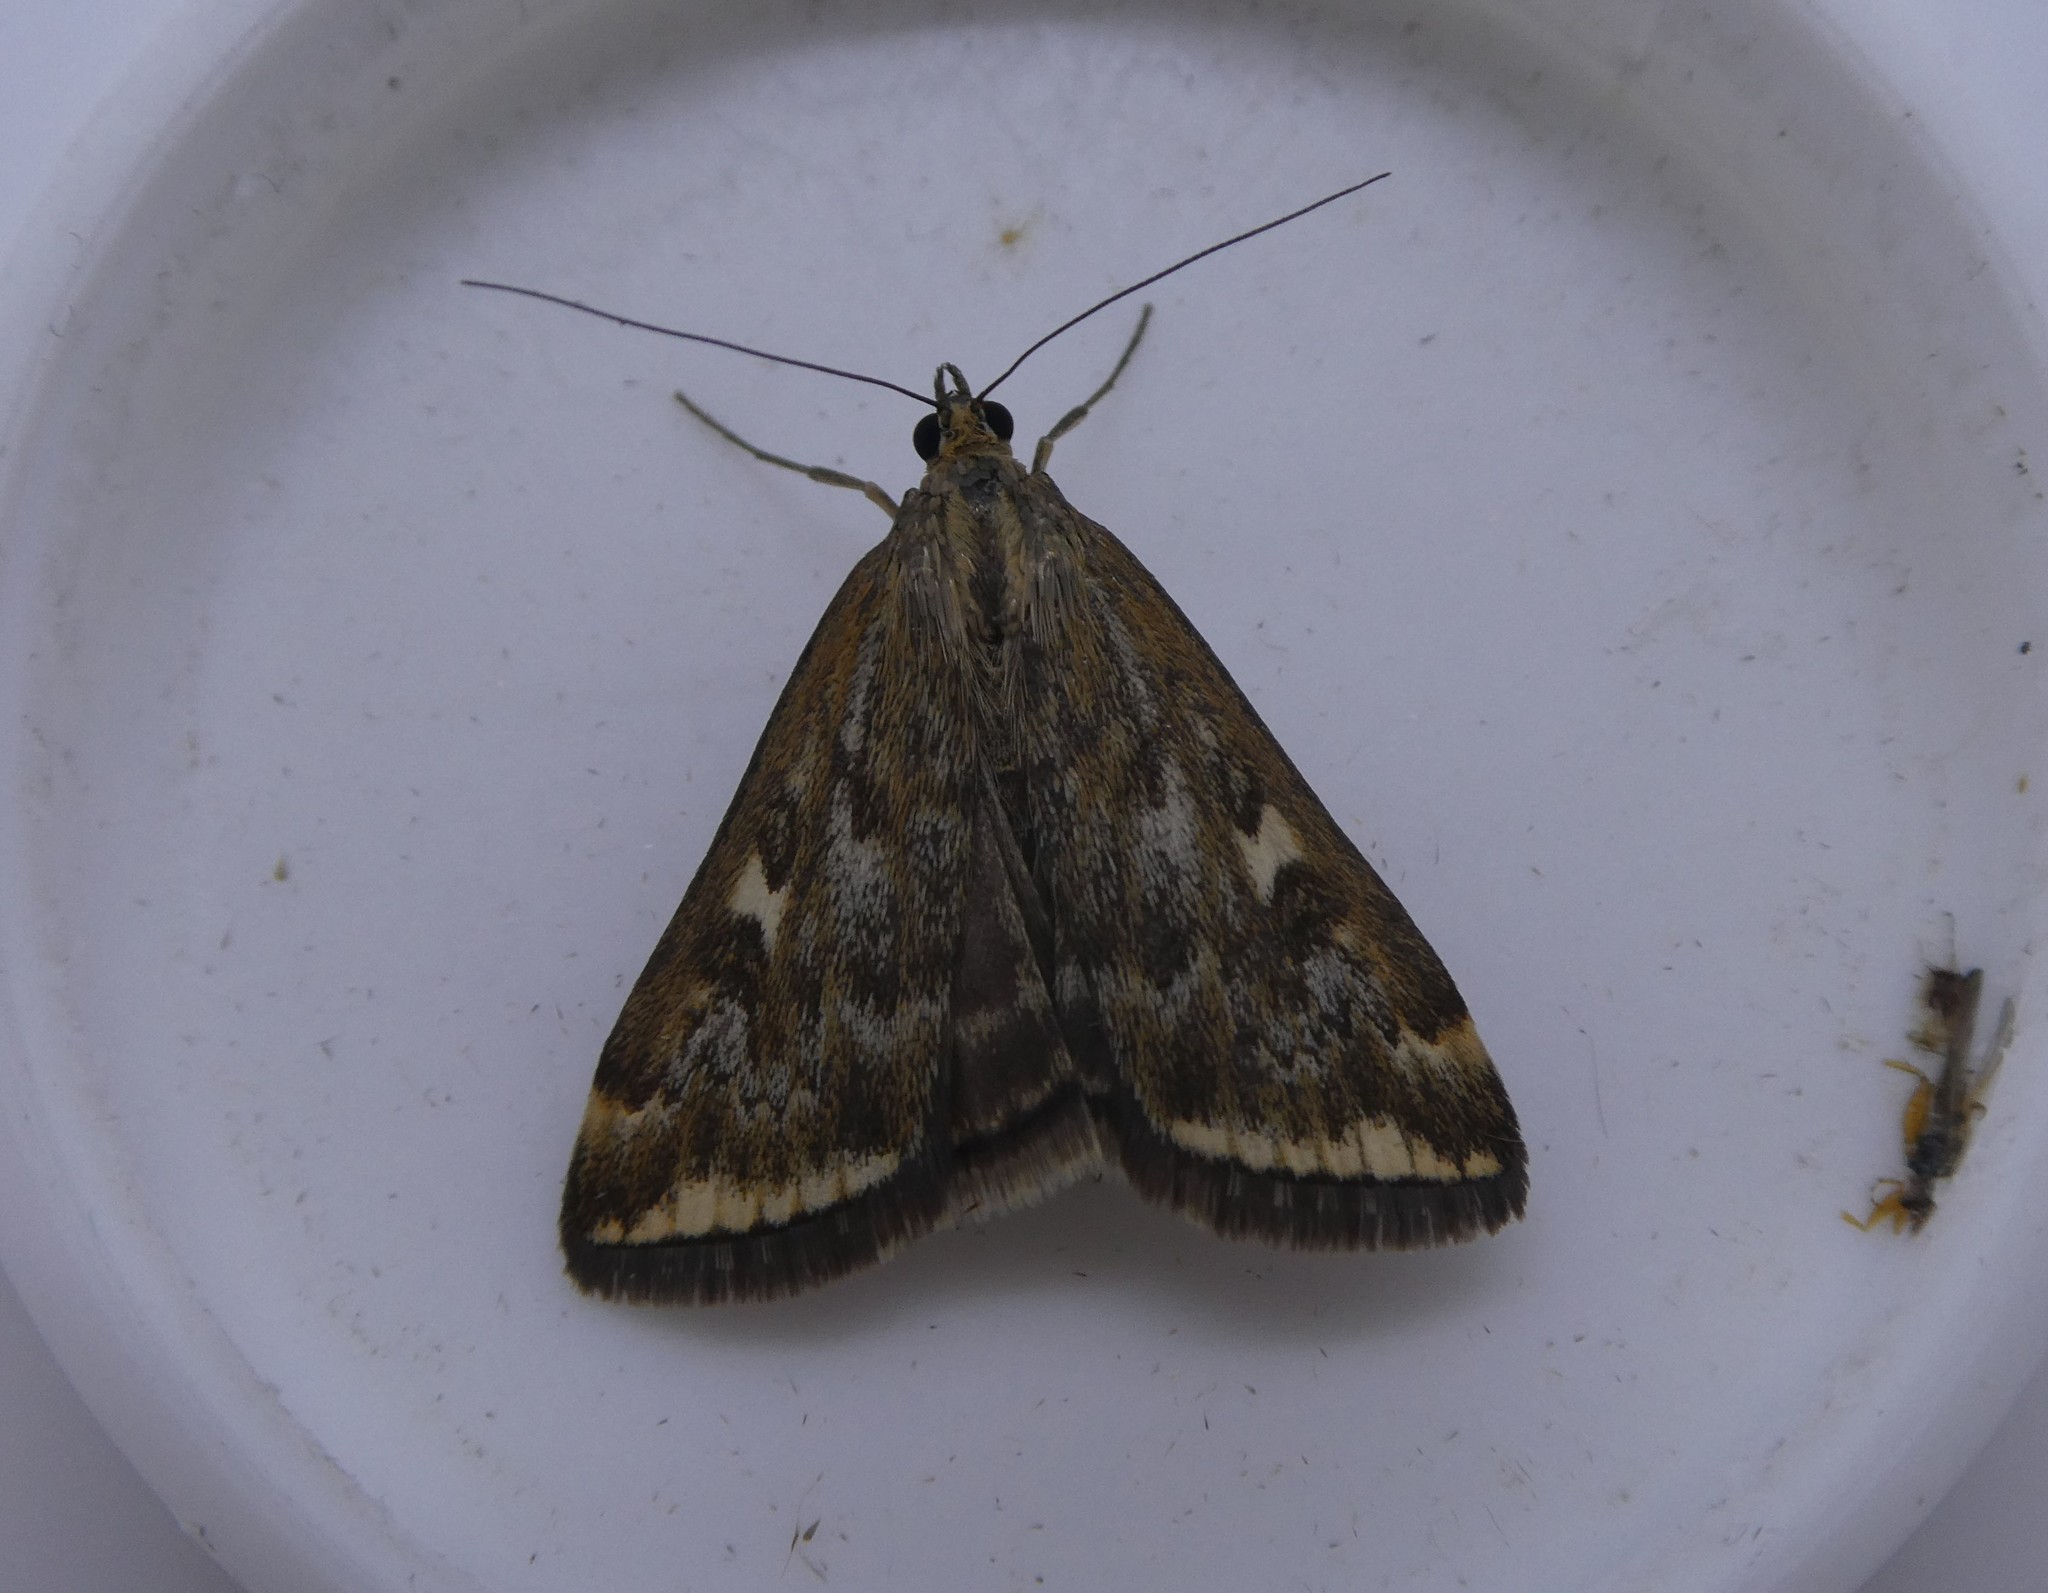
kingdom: Animalia
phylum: Arthropoda
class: Insecta
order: Lepidoptera
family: Crambidae
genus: Loxostege
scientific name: Loxostege
